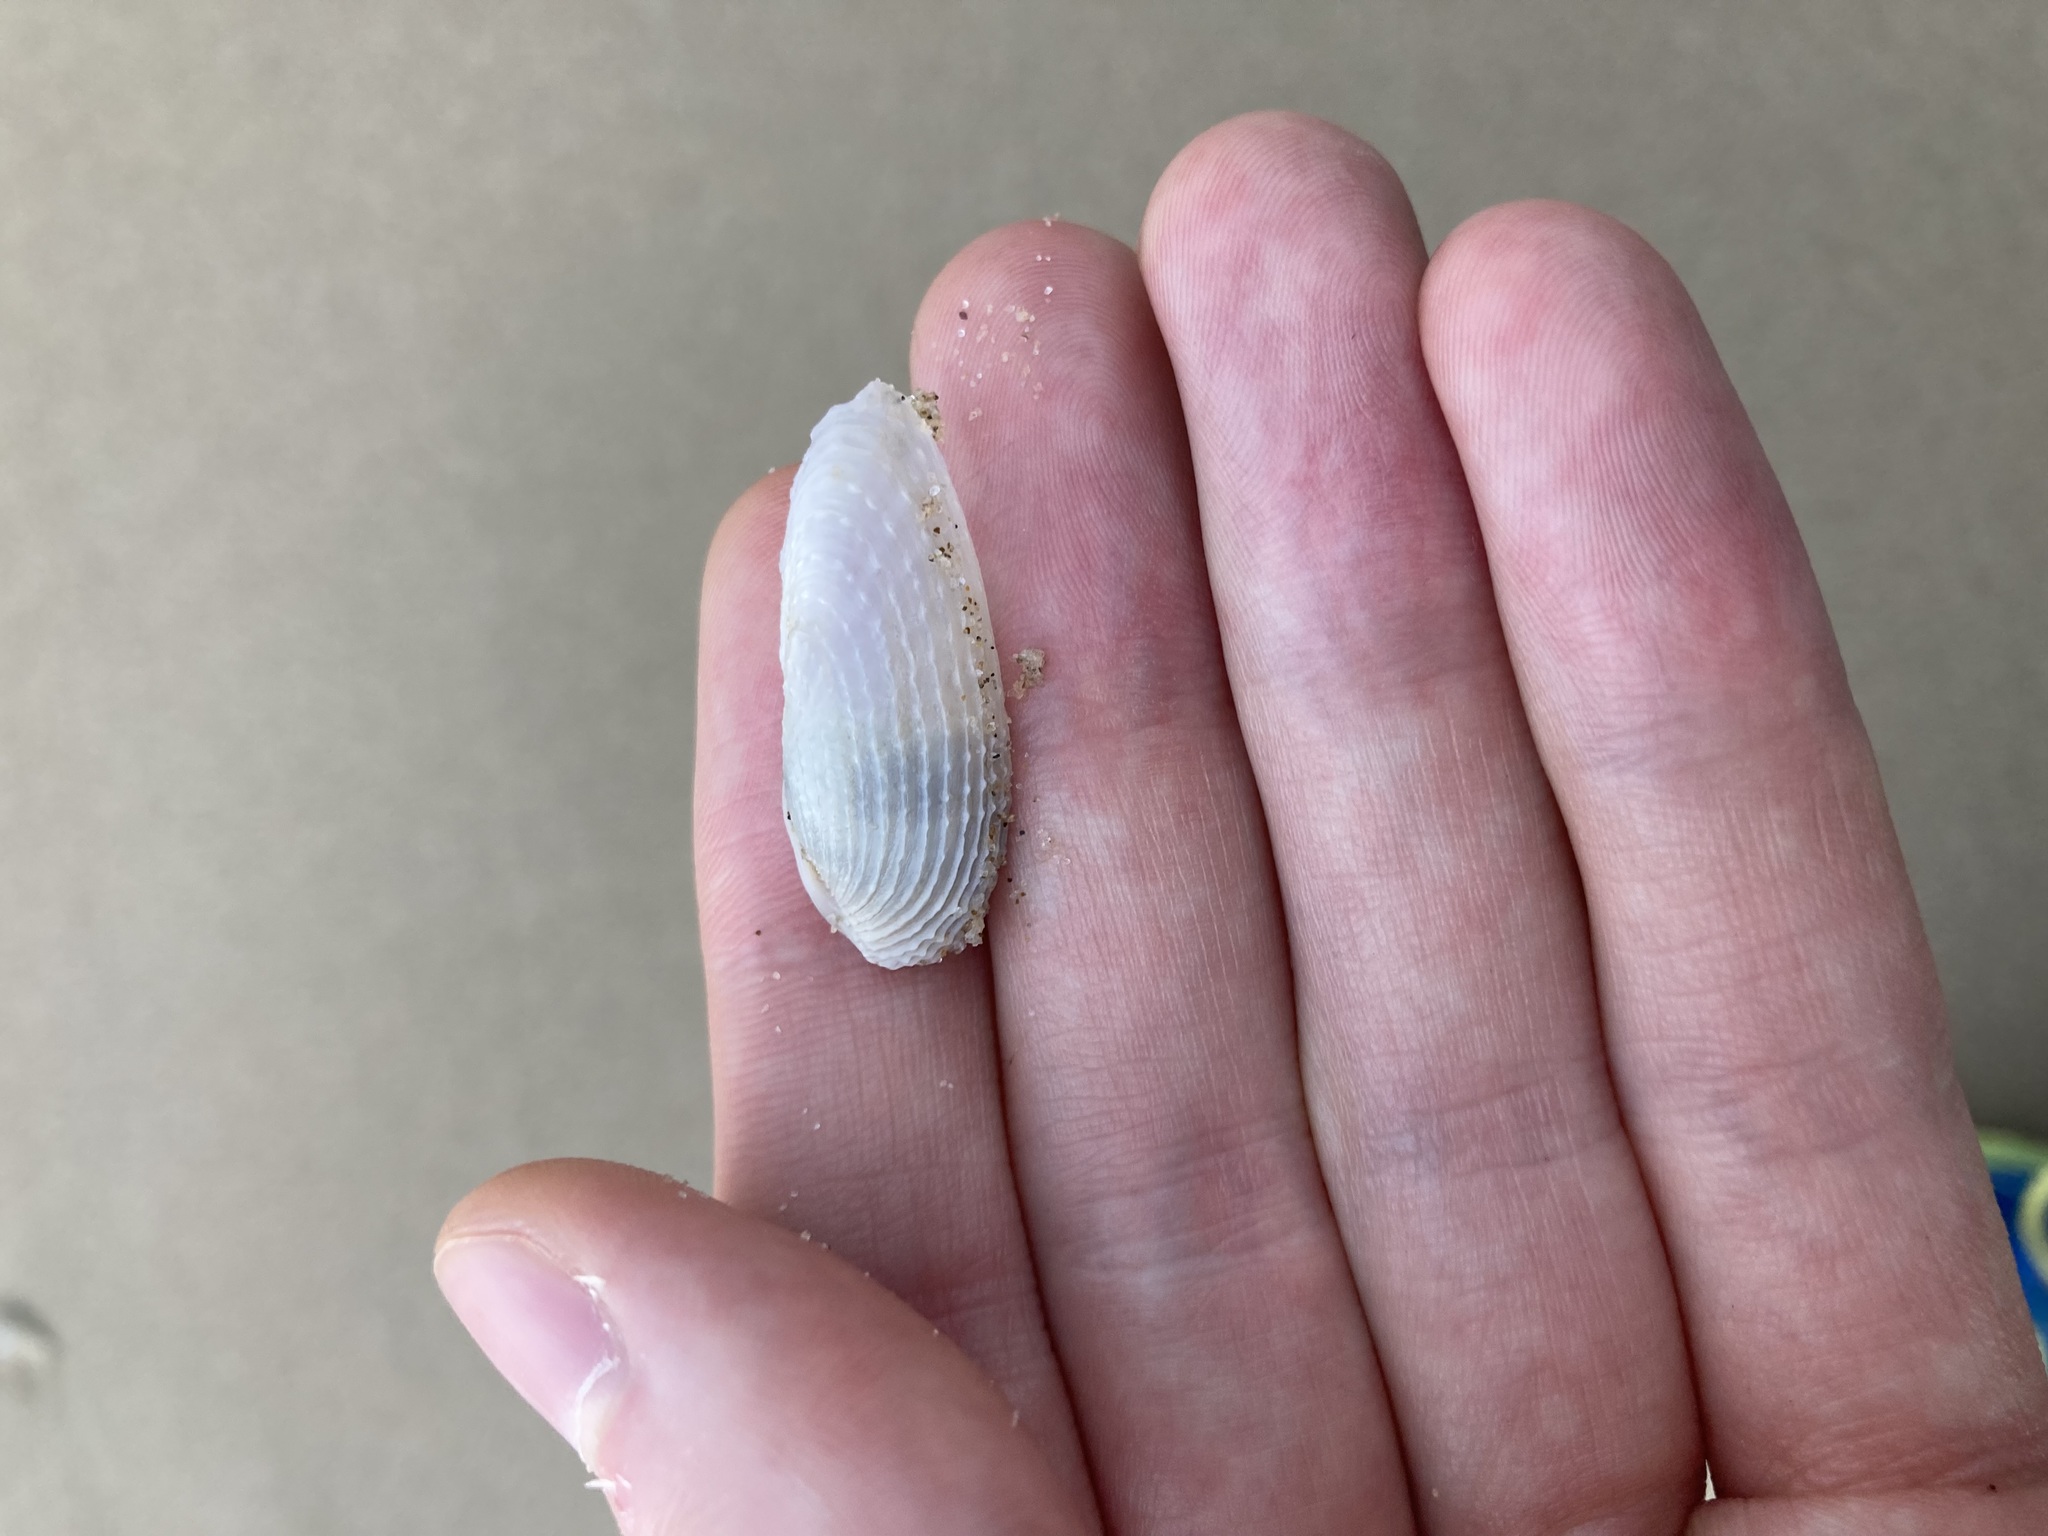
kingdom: Animalia
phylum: Mollusca
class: Bivalvia
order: Myida
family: Pholadidae
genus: Barnea
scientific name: Barnea australasiae
